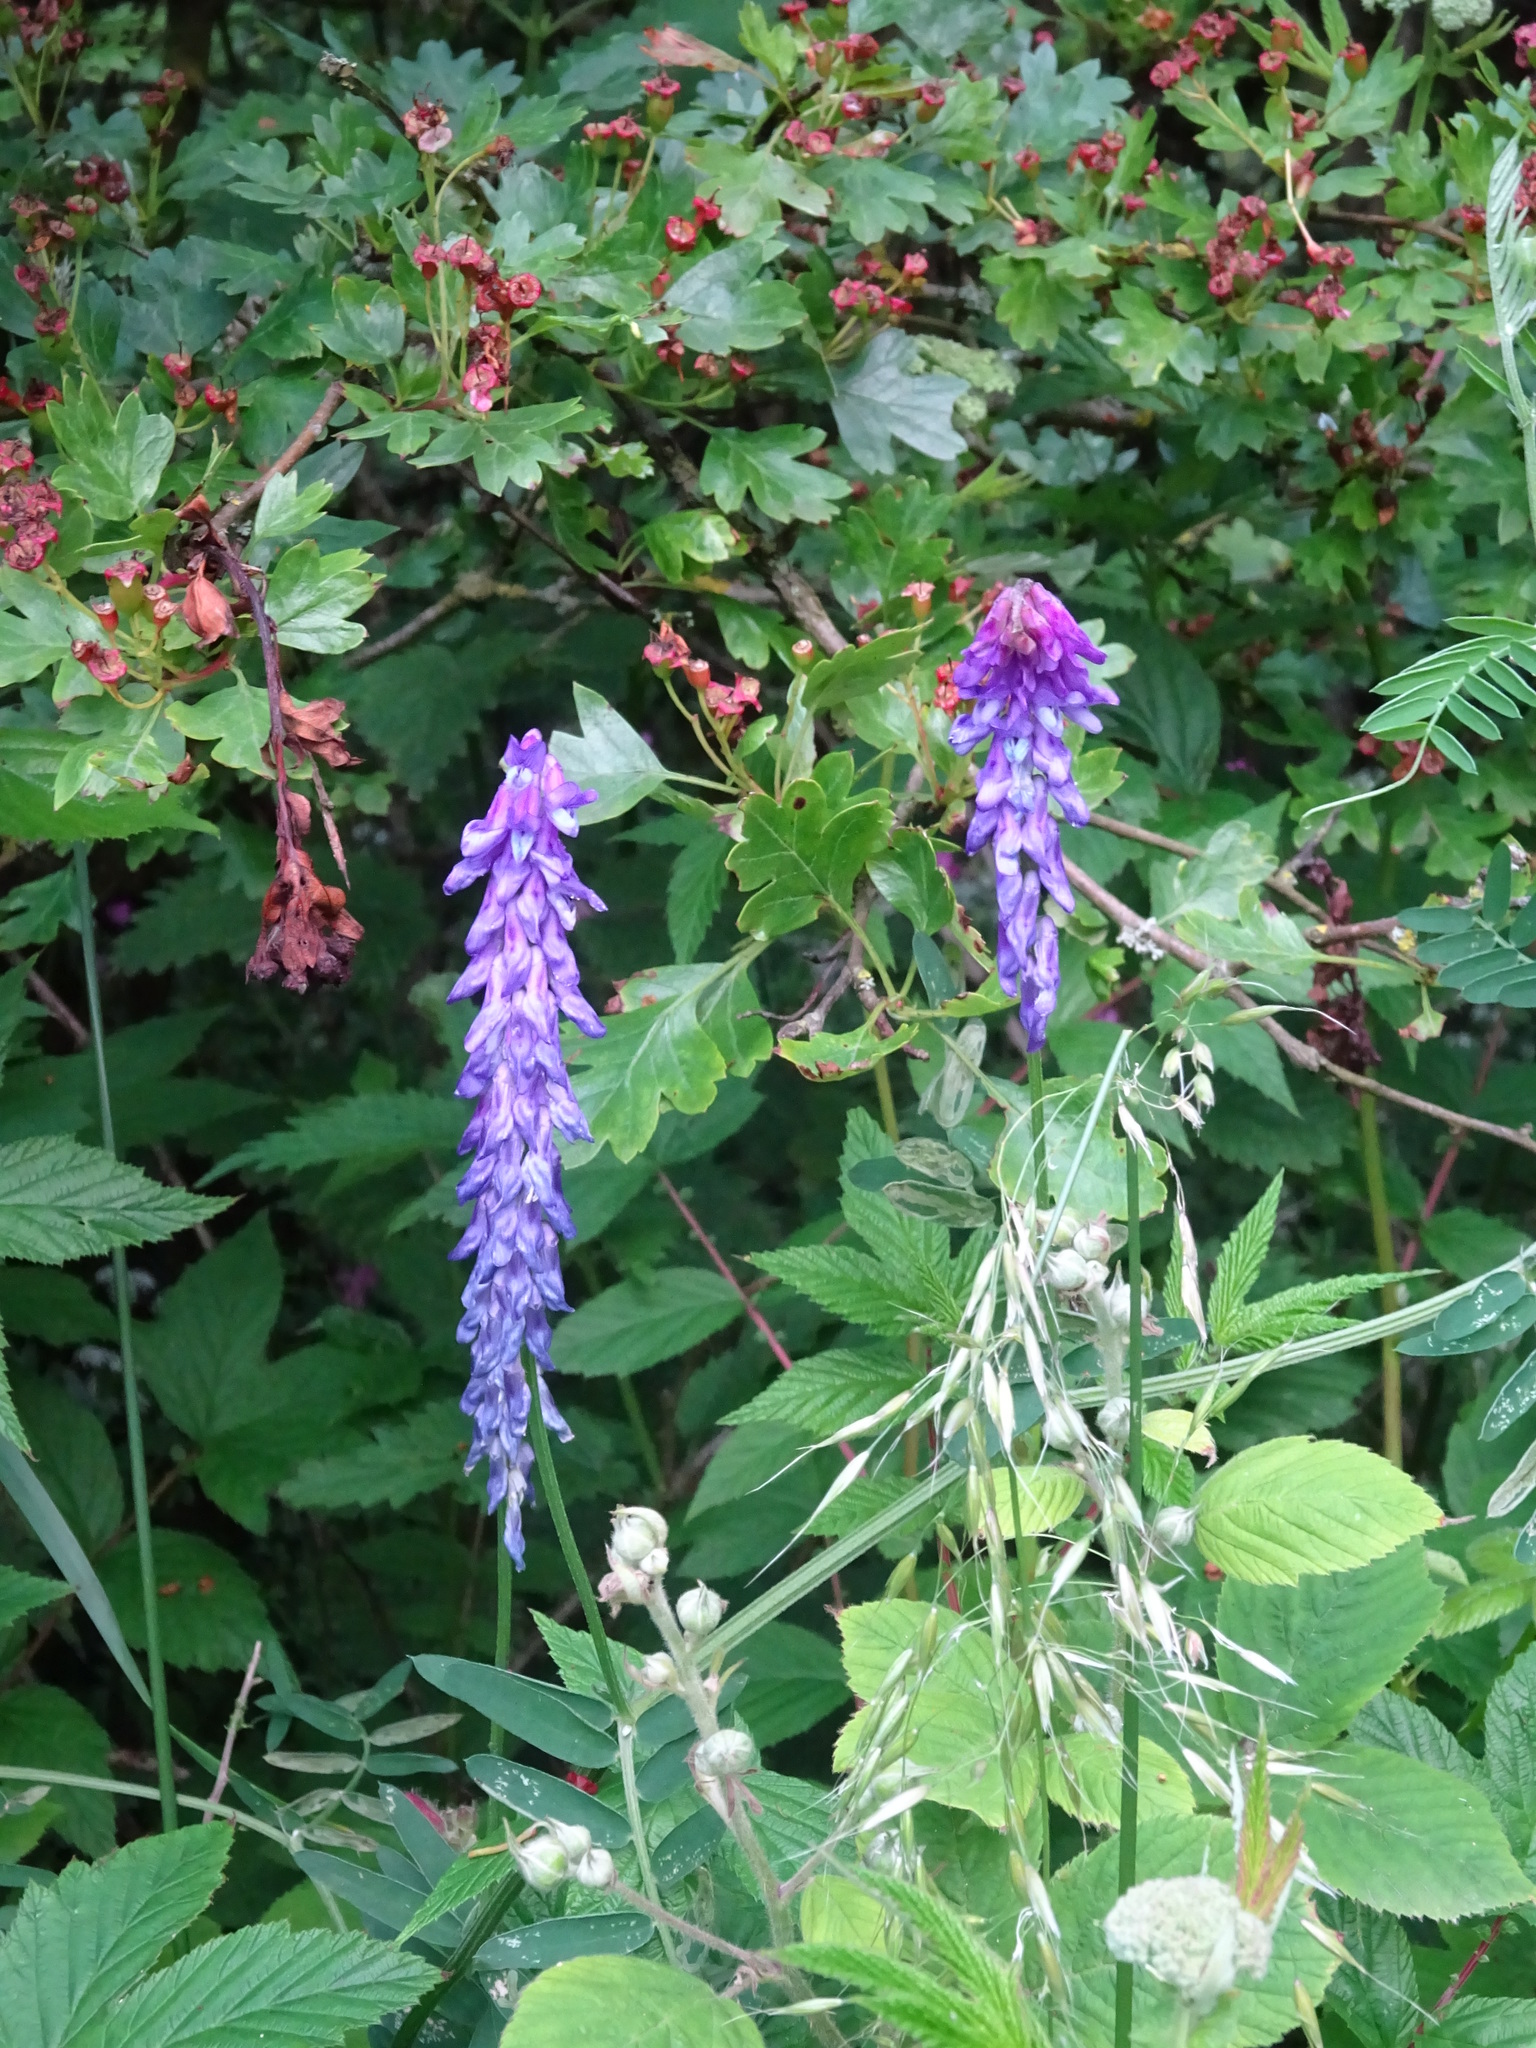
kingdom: Plantae
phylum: Tracheophyta
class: Magnoliopsida
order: Fabales
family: Fabaceae
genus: Vicia
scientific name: Vicia cracca
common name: Bird vetch
